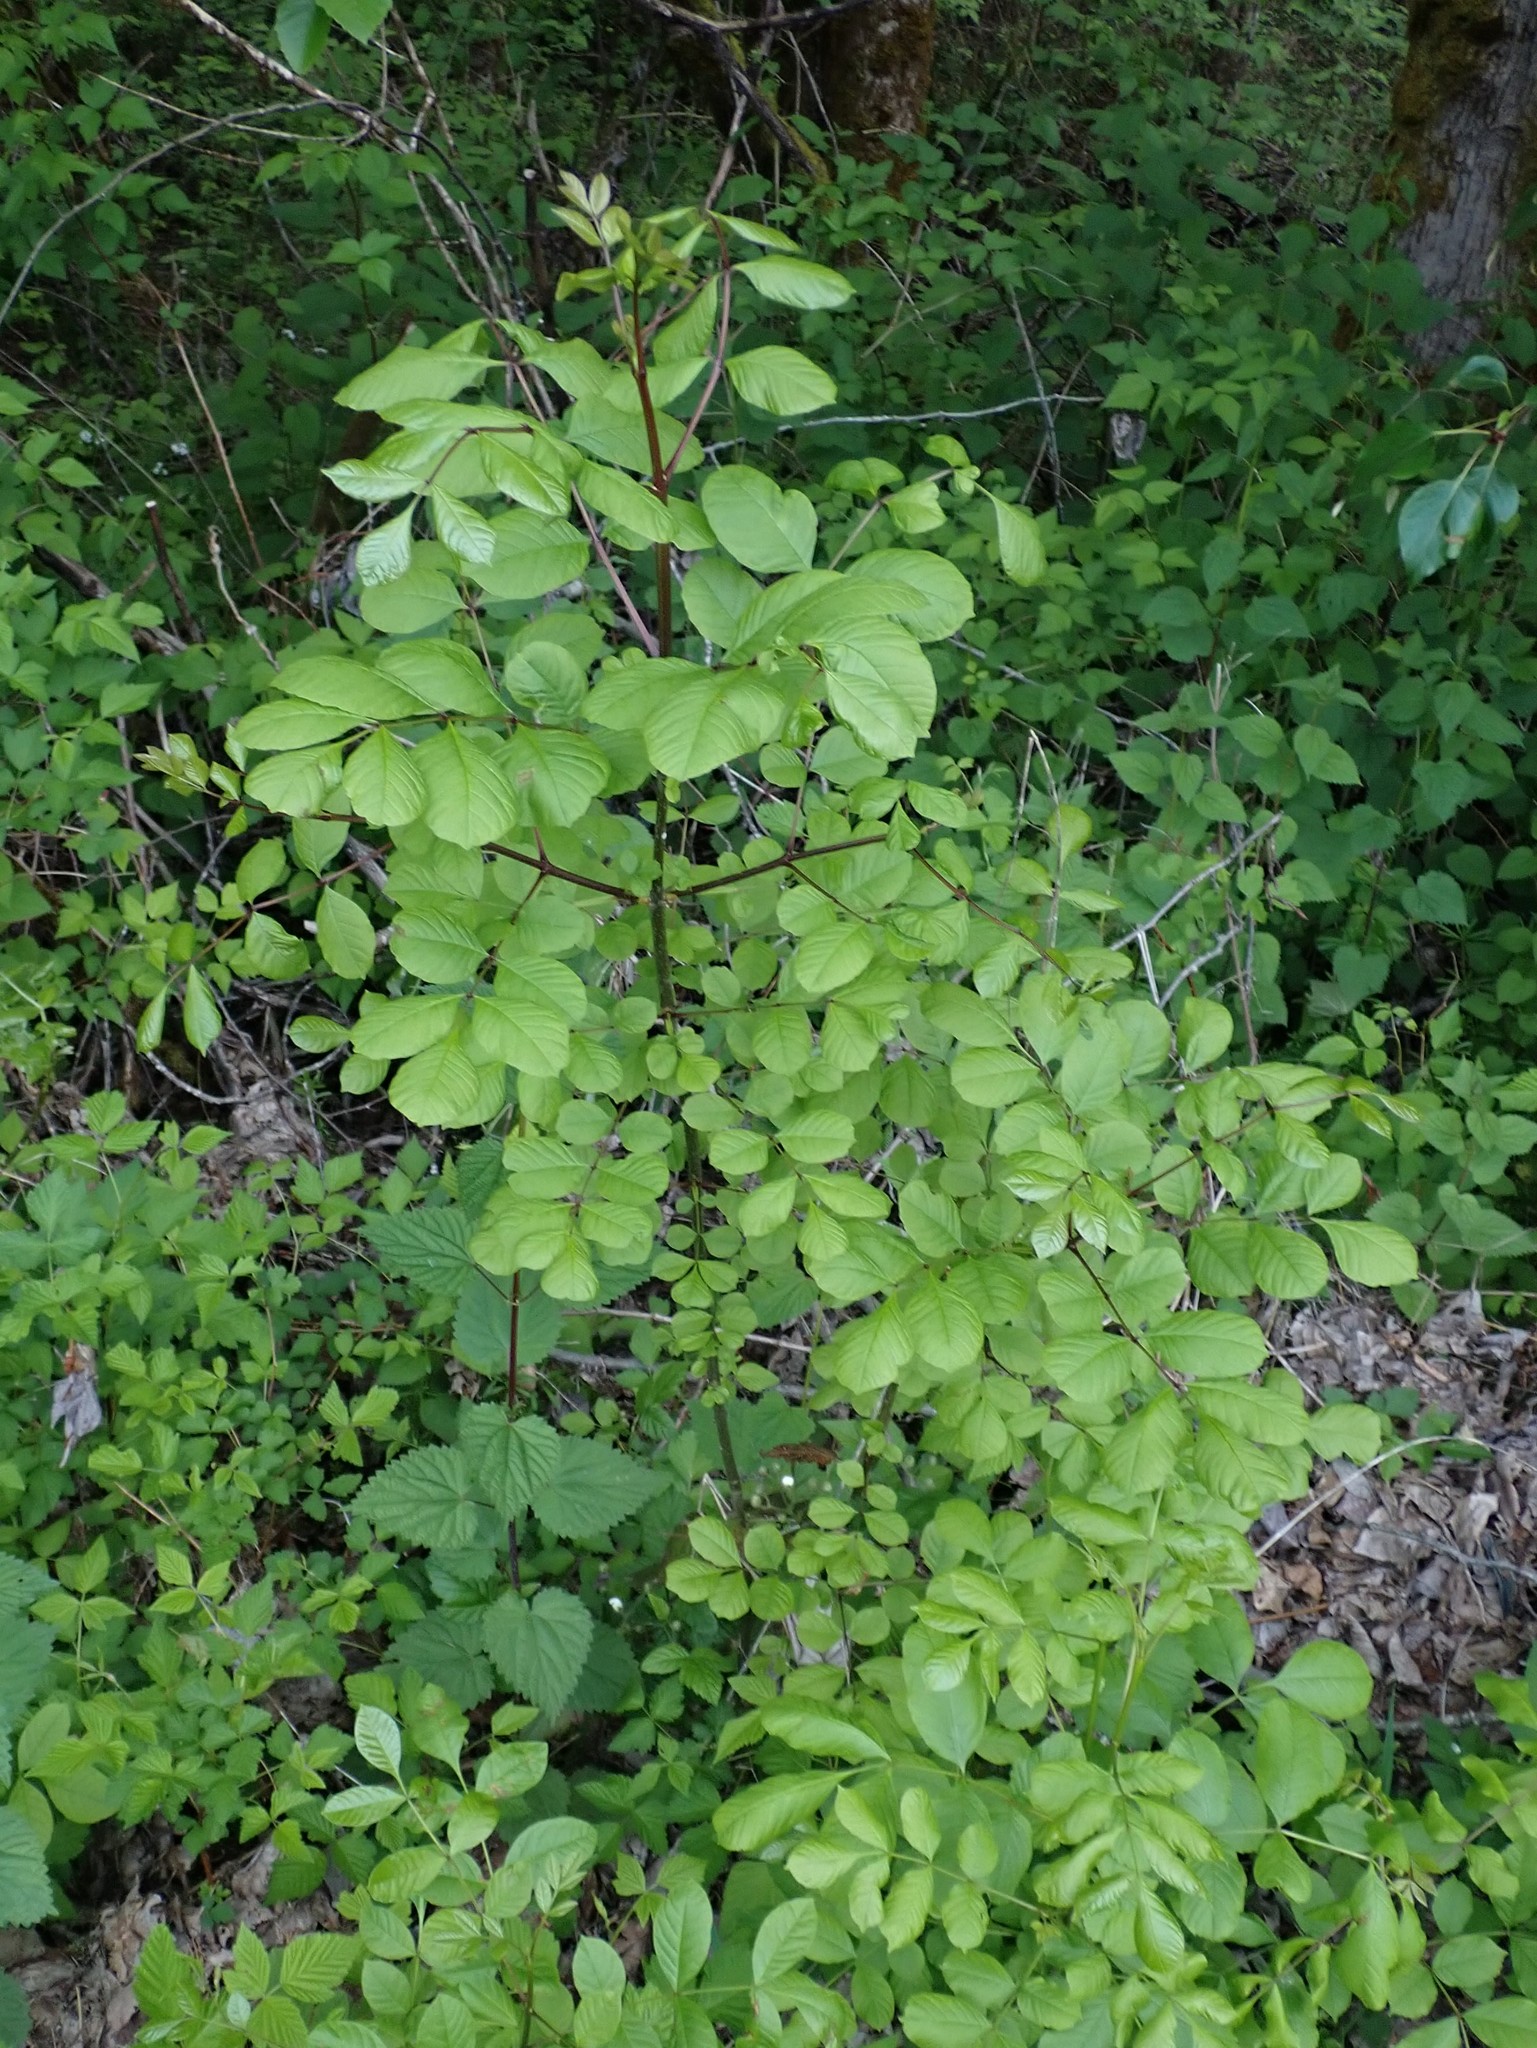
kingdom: Plantae
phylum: Tracheophyta
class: Magnoliopsida
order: Lamiales
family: Oleaceae
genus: Fraxinus
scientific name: Fraxinus latifolia
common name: Oregon ash
